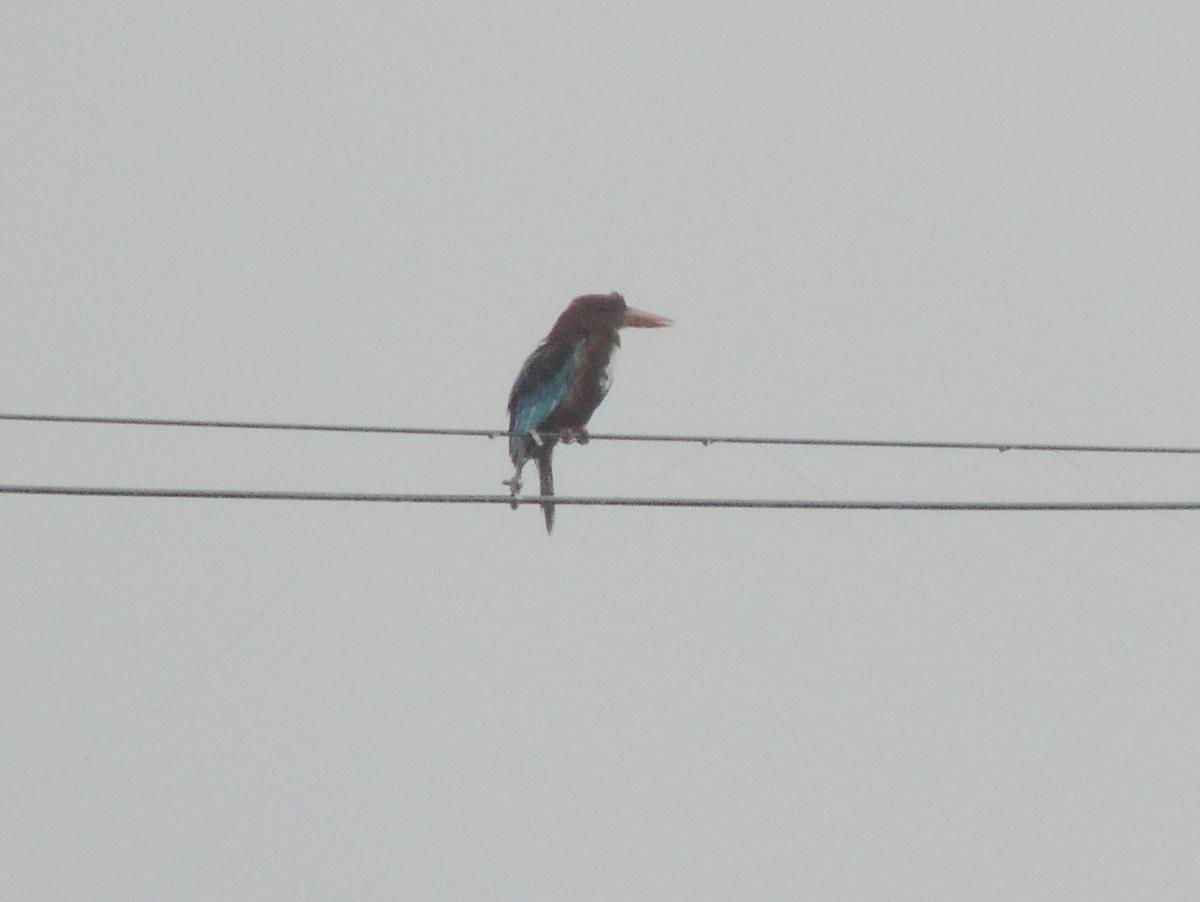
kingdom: Animalia
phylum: Chordata
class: Aves
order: Coraciiformes
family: Alcedinidae
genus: Halcyon
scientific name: Halcyon smyrnensis
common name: White-throated kingfisher
